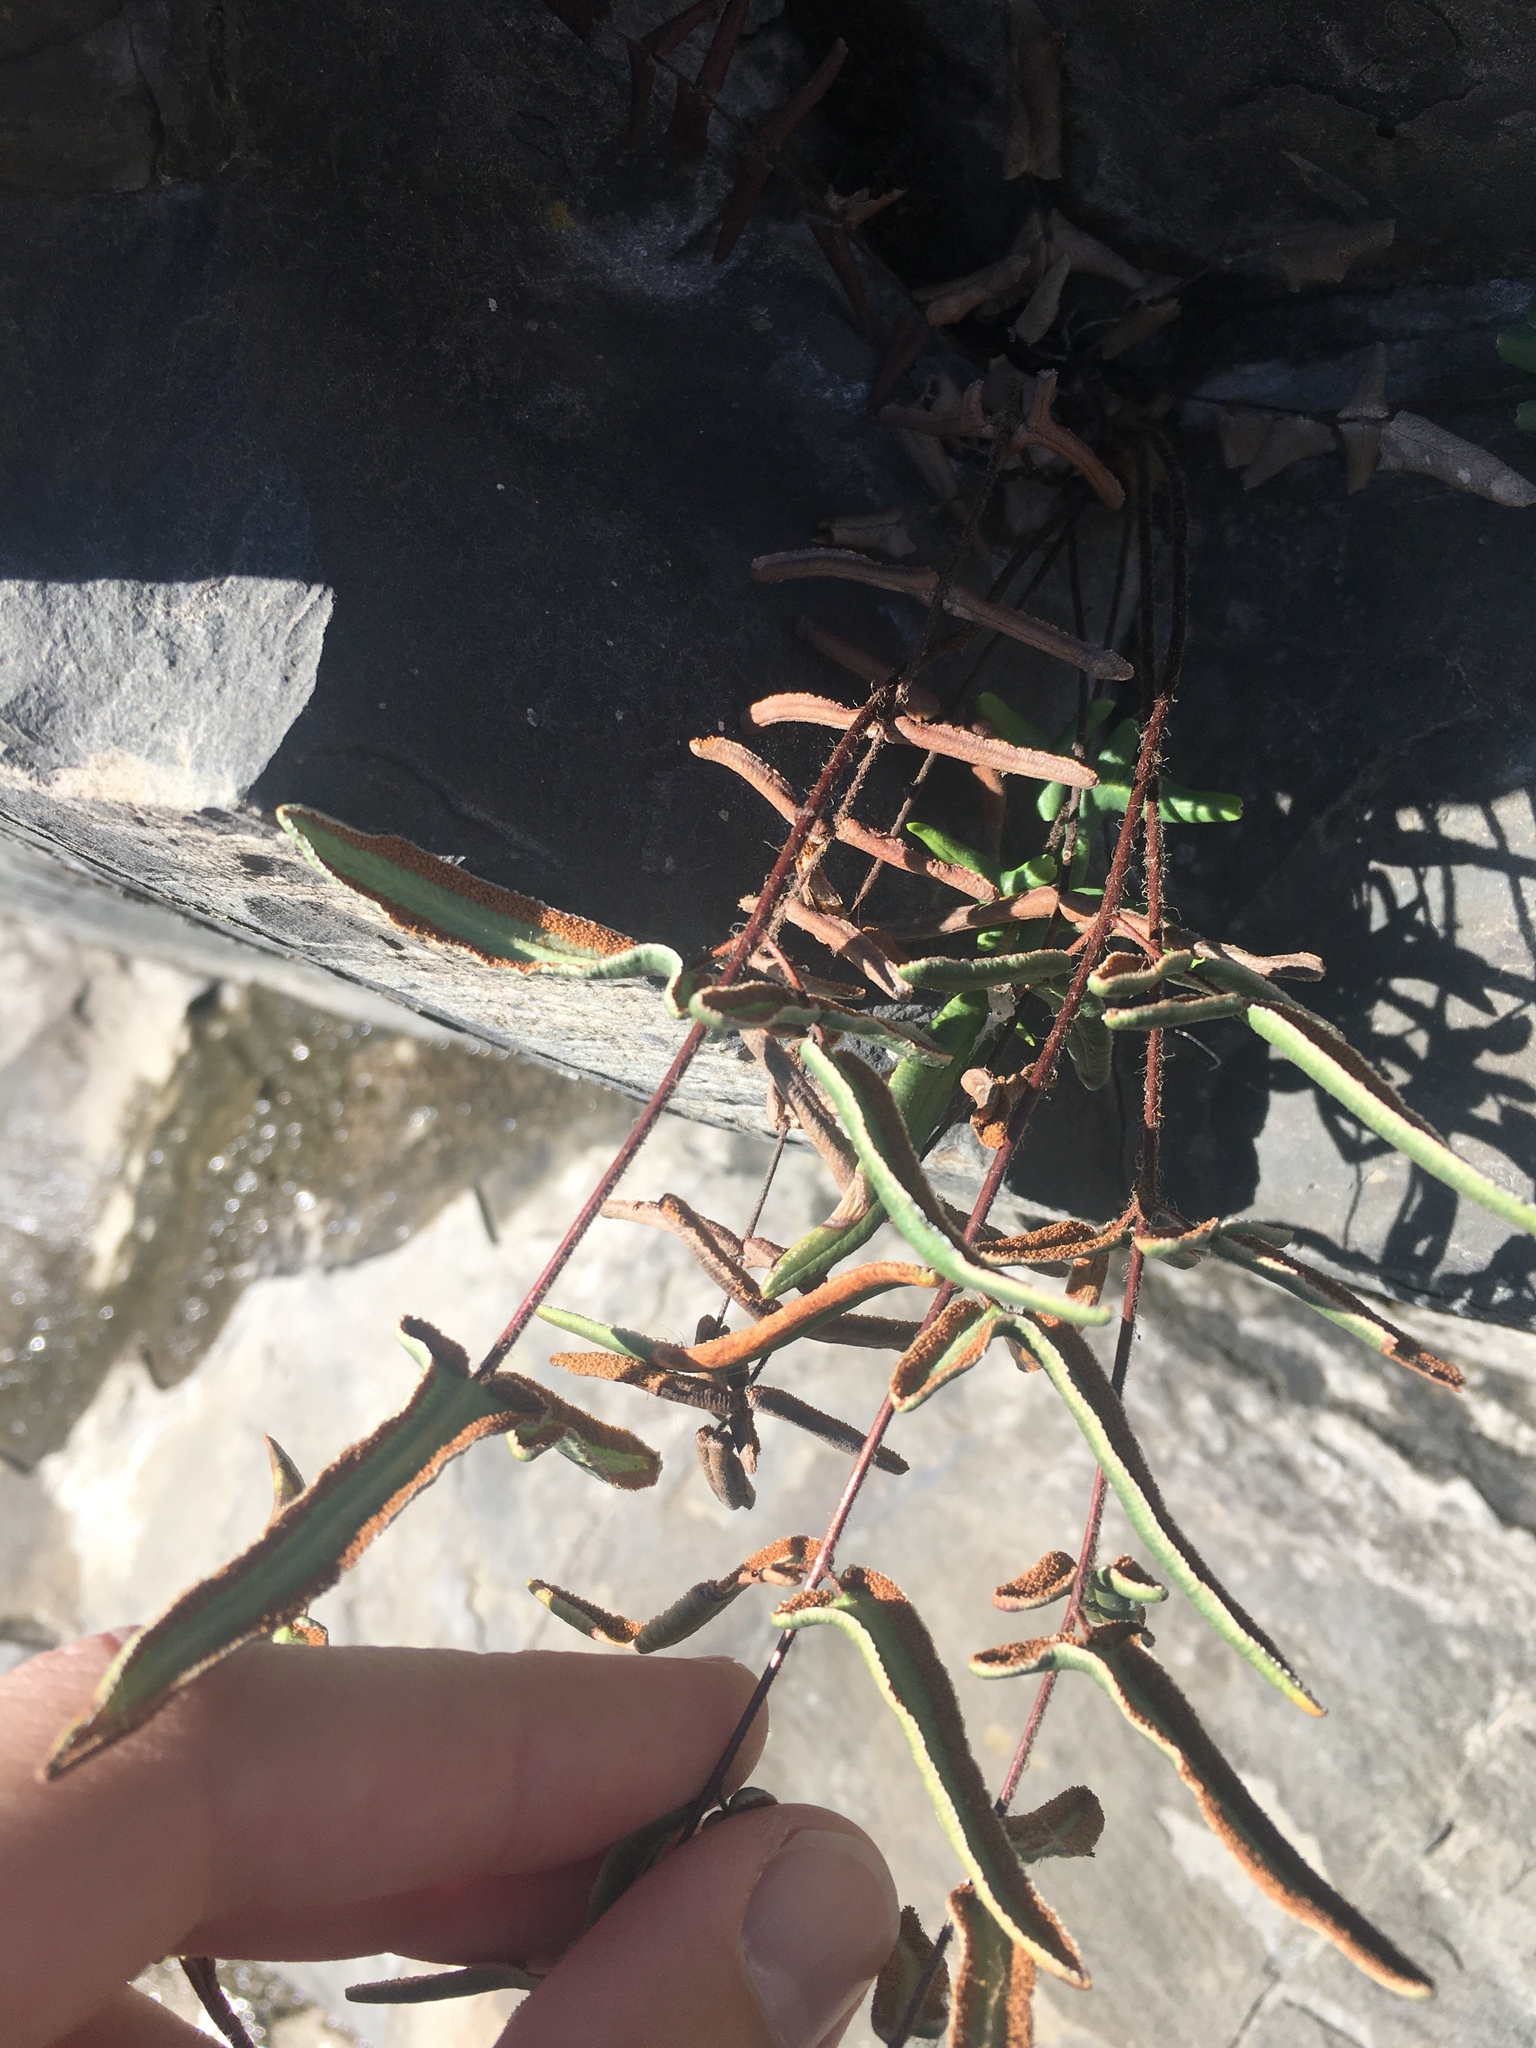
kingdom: Plantae
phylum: Tracheophyta
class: Polypodiopsida
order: Polypodiales
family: Pteridaceae
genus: Pellaea
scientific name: Pellaea atropurpurea
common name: Hairy cliffbrake
